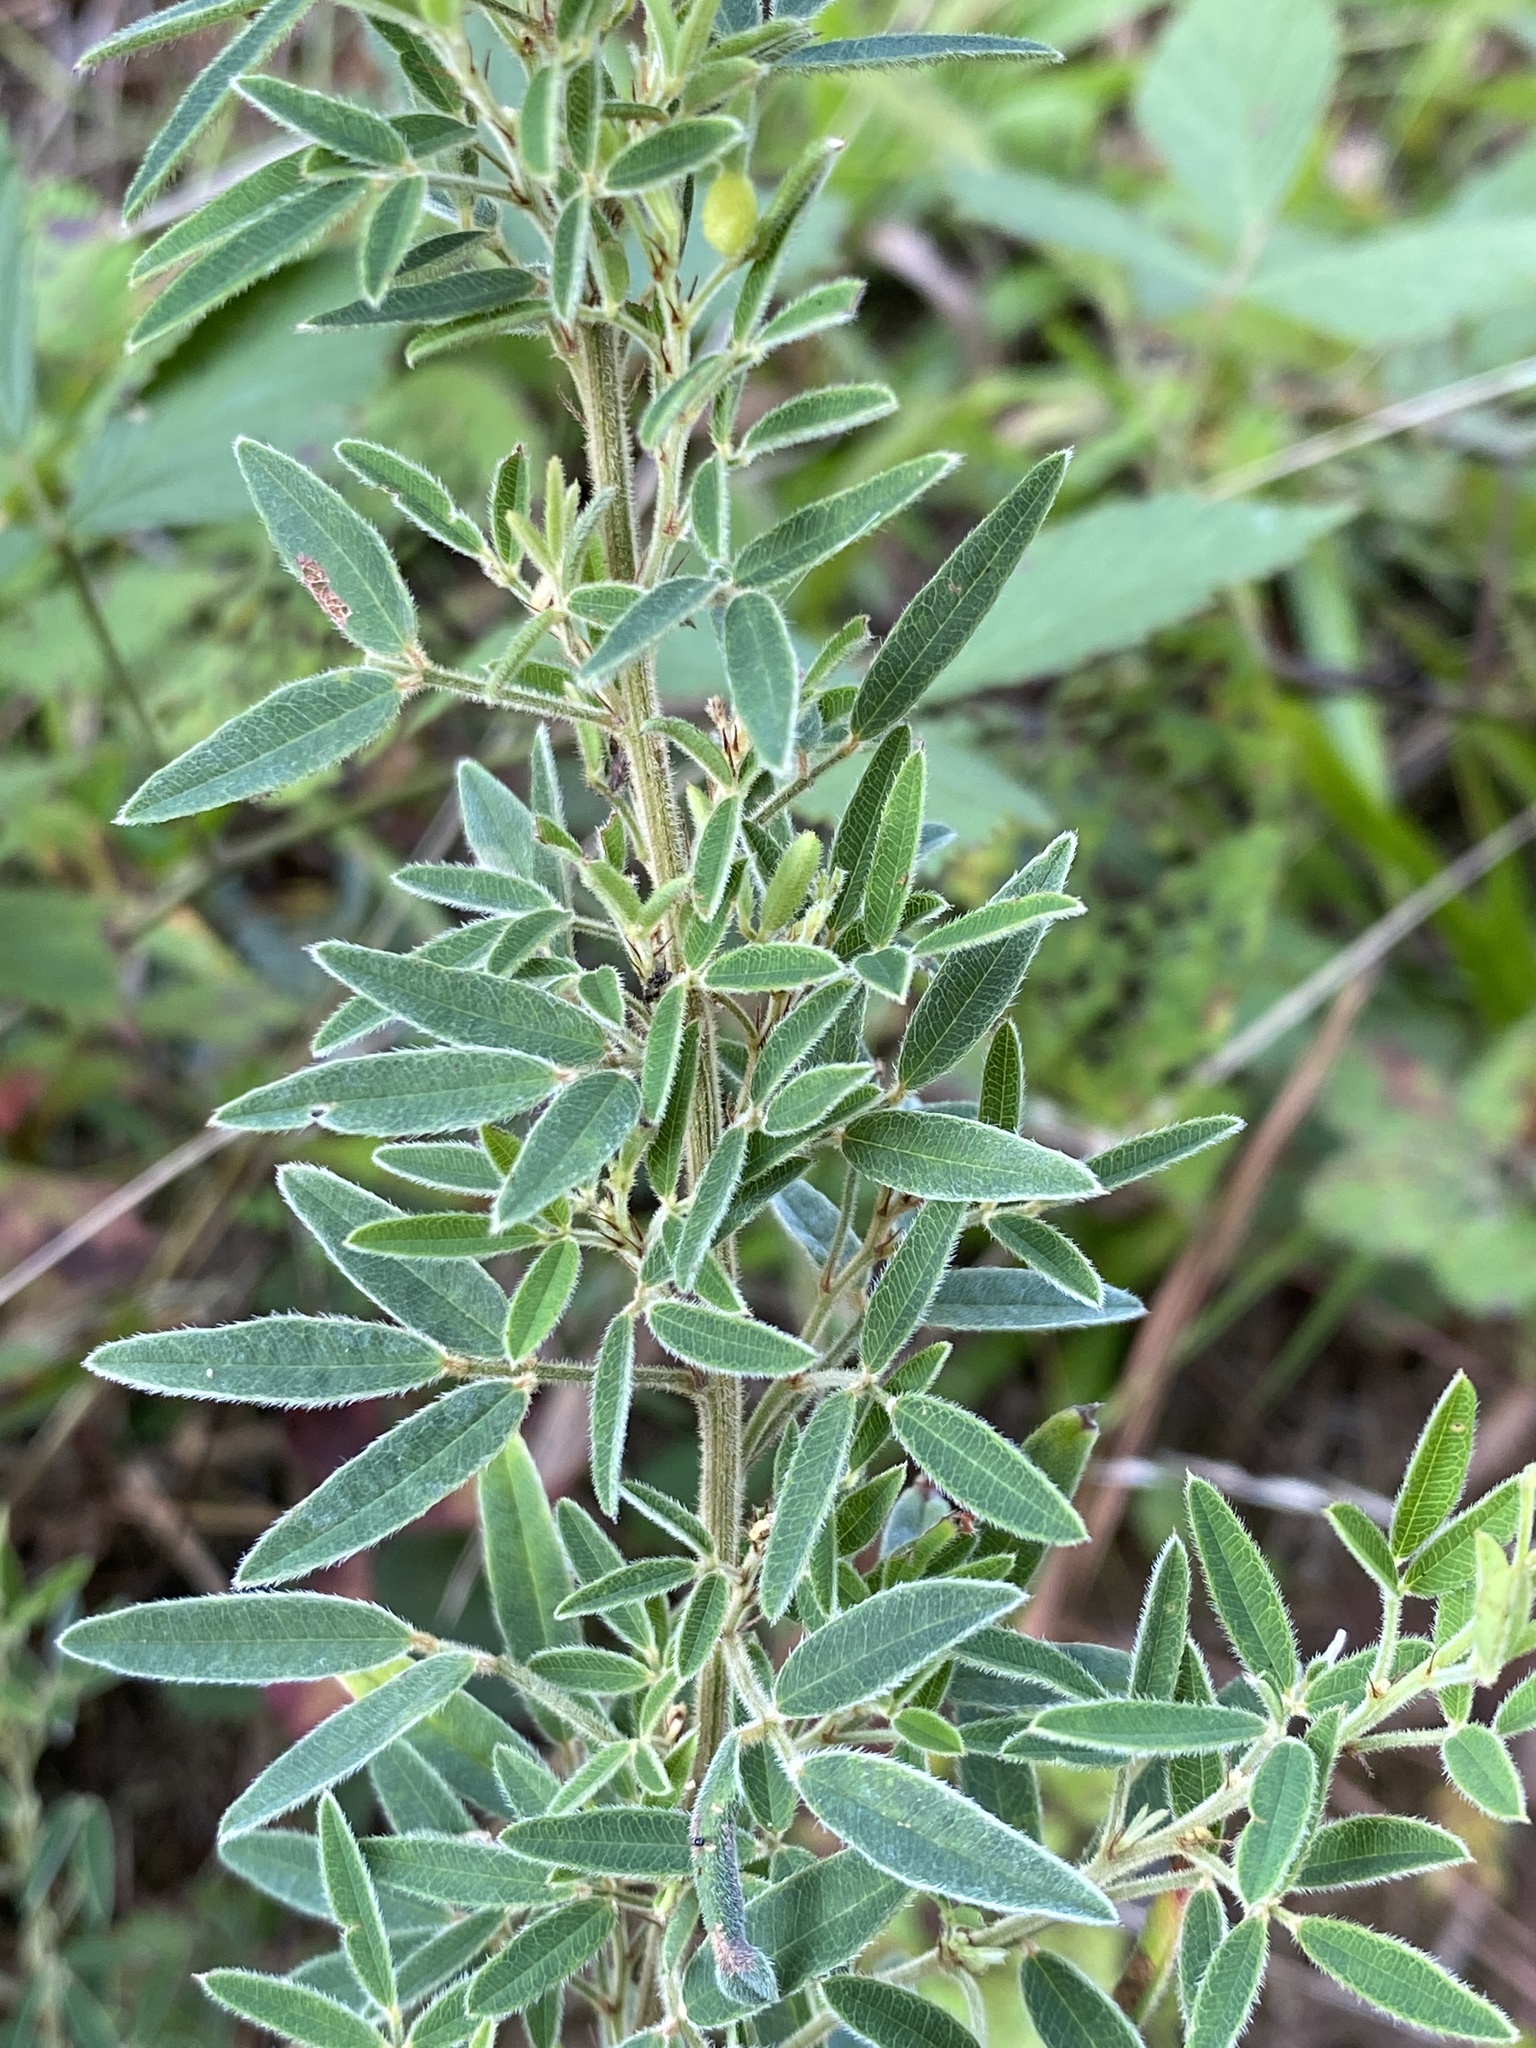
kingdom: Plantae
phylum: Tracheophyta
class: Magnoliopsida
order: Fabales
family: Fabaceae
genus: Lespedeza
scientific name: Lespedeza virginica
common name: Slender bush-clover
